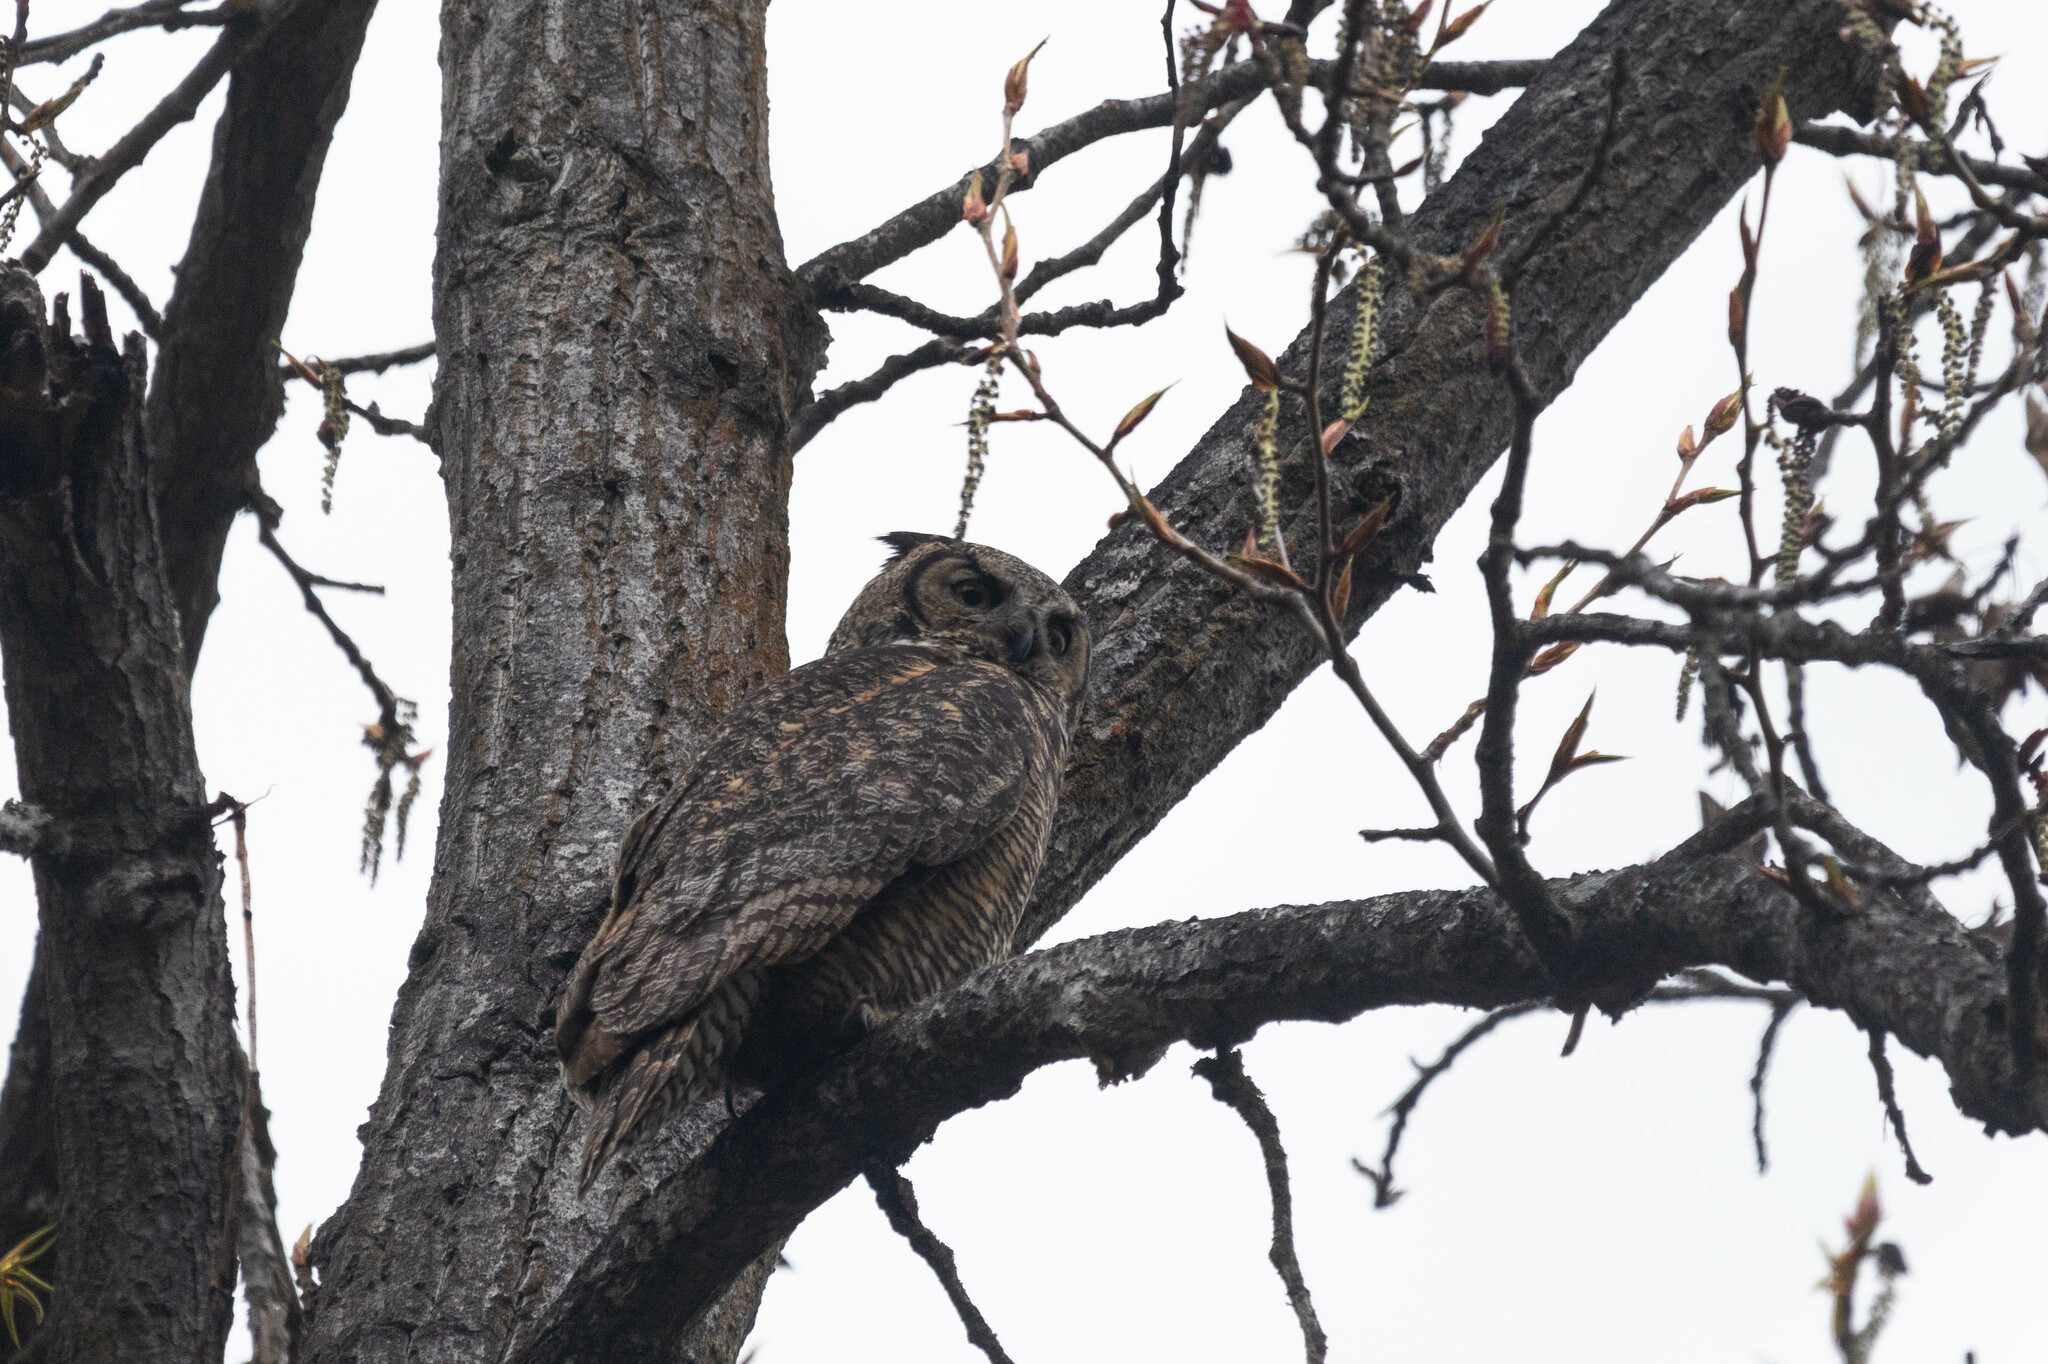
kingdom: Animalia
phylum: Chordata
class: Aves
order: Strigiformes
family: Strigidae
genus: Bubo
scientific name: Bubo virginianus
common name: Great horned owl
